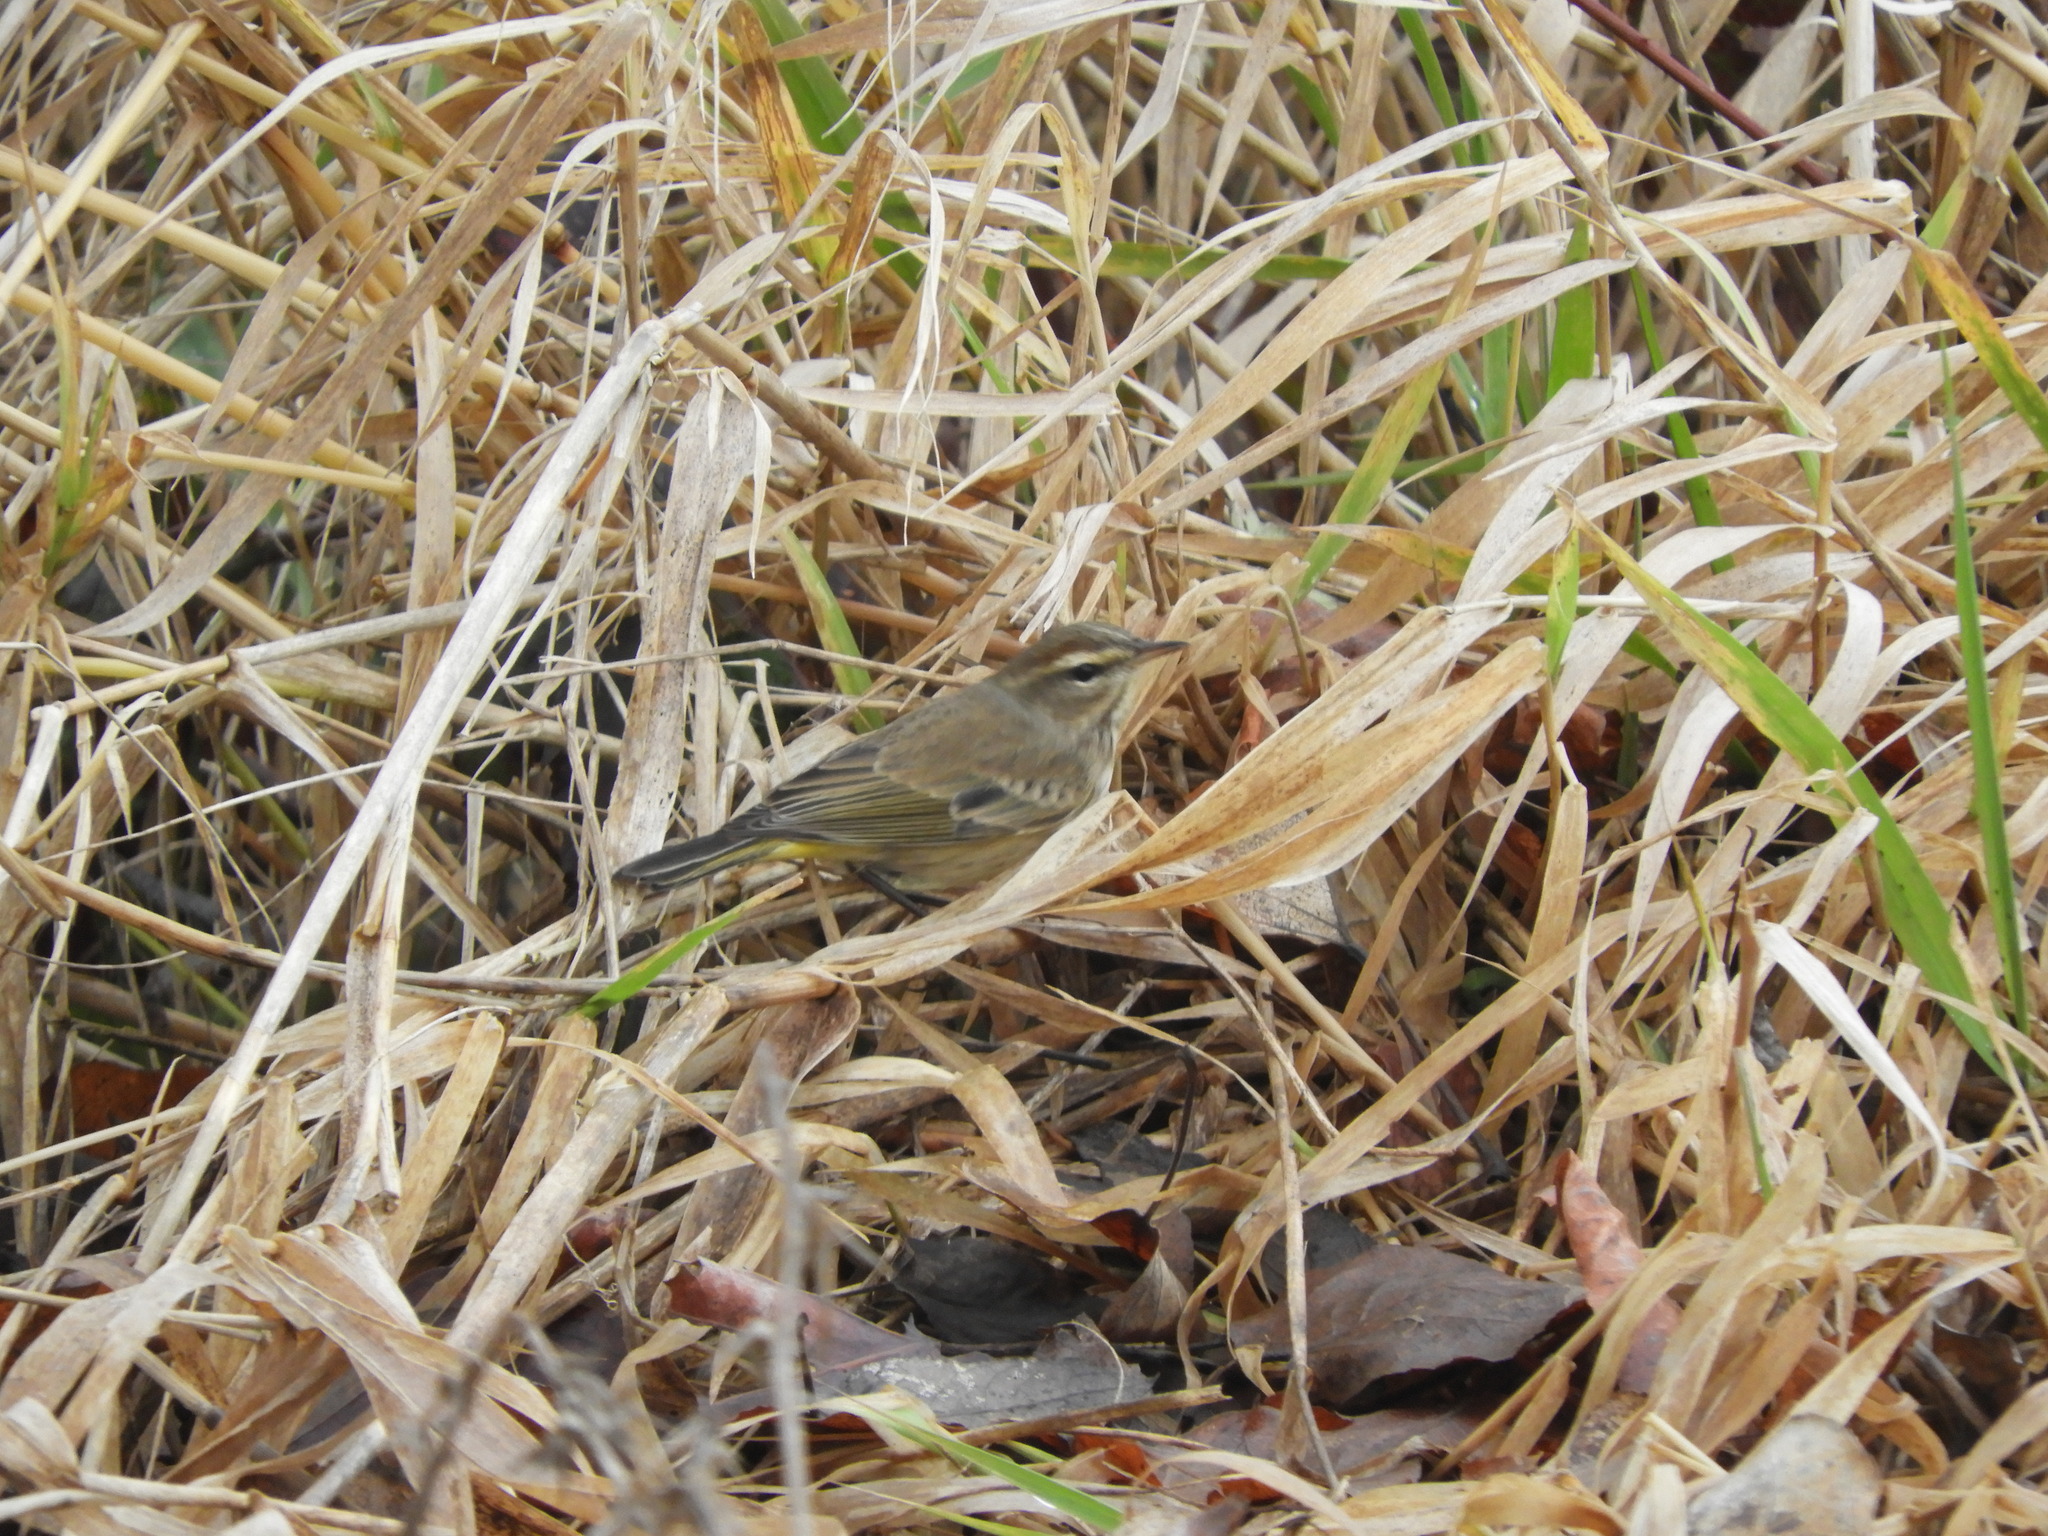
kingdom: Animalia
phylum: Chordata
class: Aves
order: Passeriformes
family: Parulidae
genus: Setophaga
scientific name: Setophaga palmarum
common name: Palm warbler
